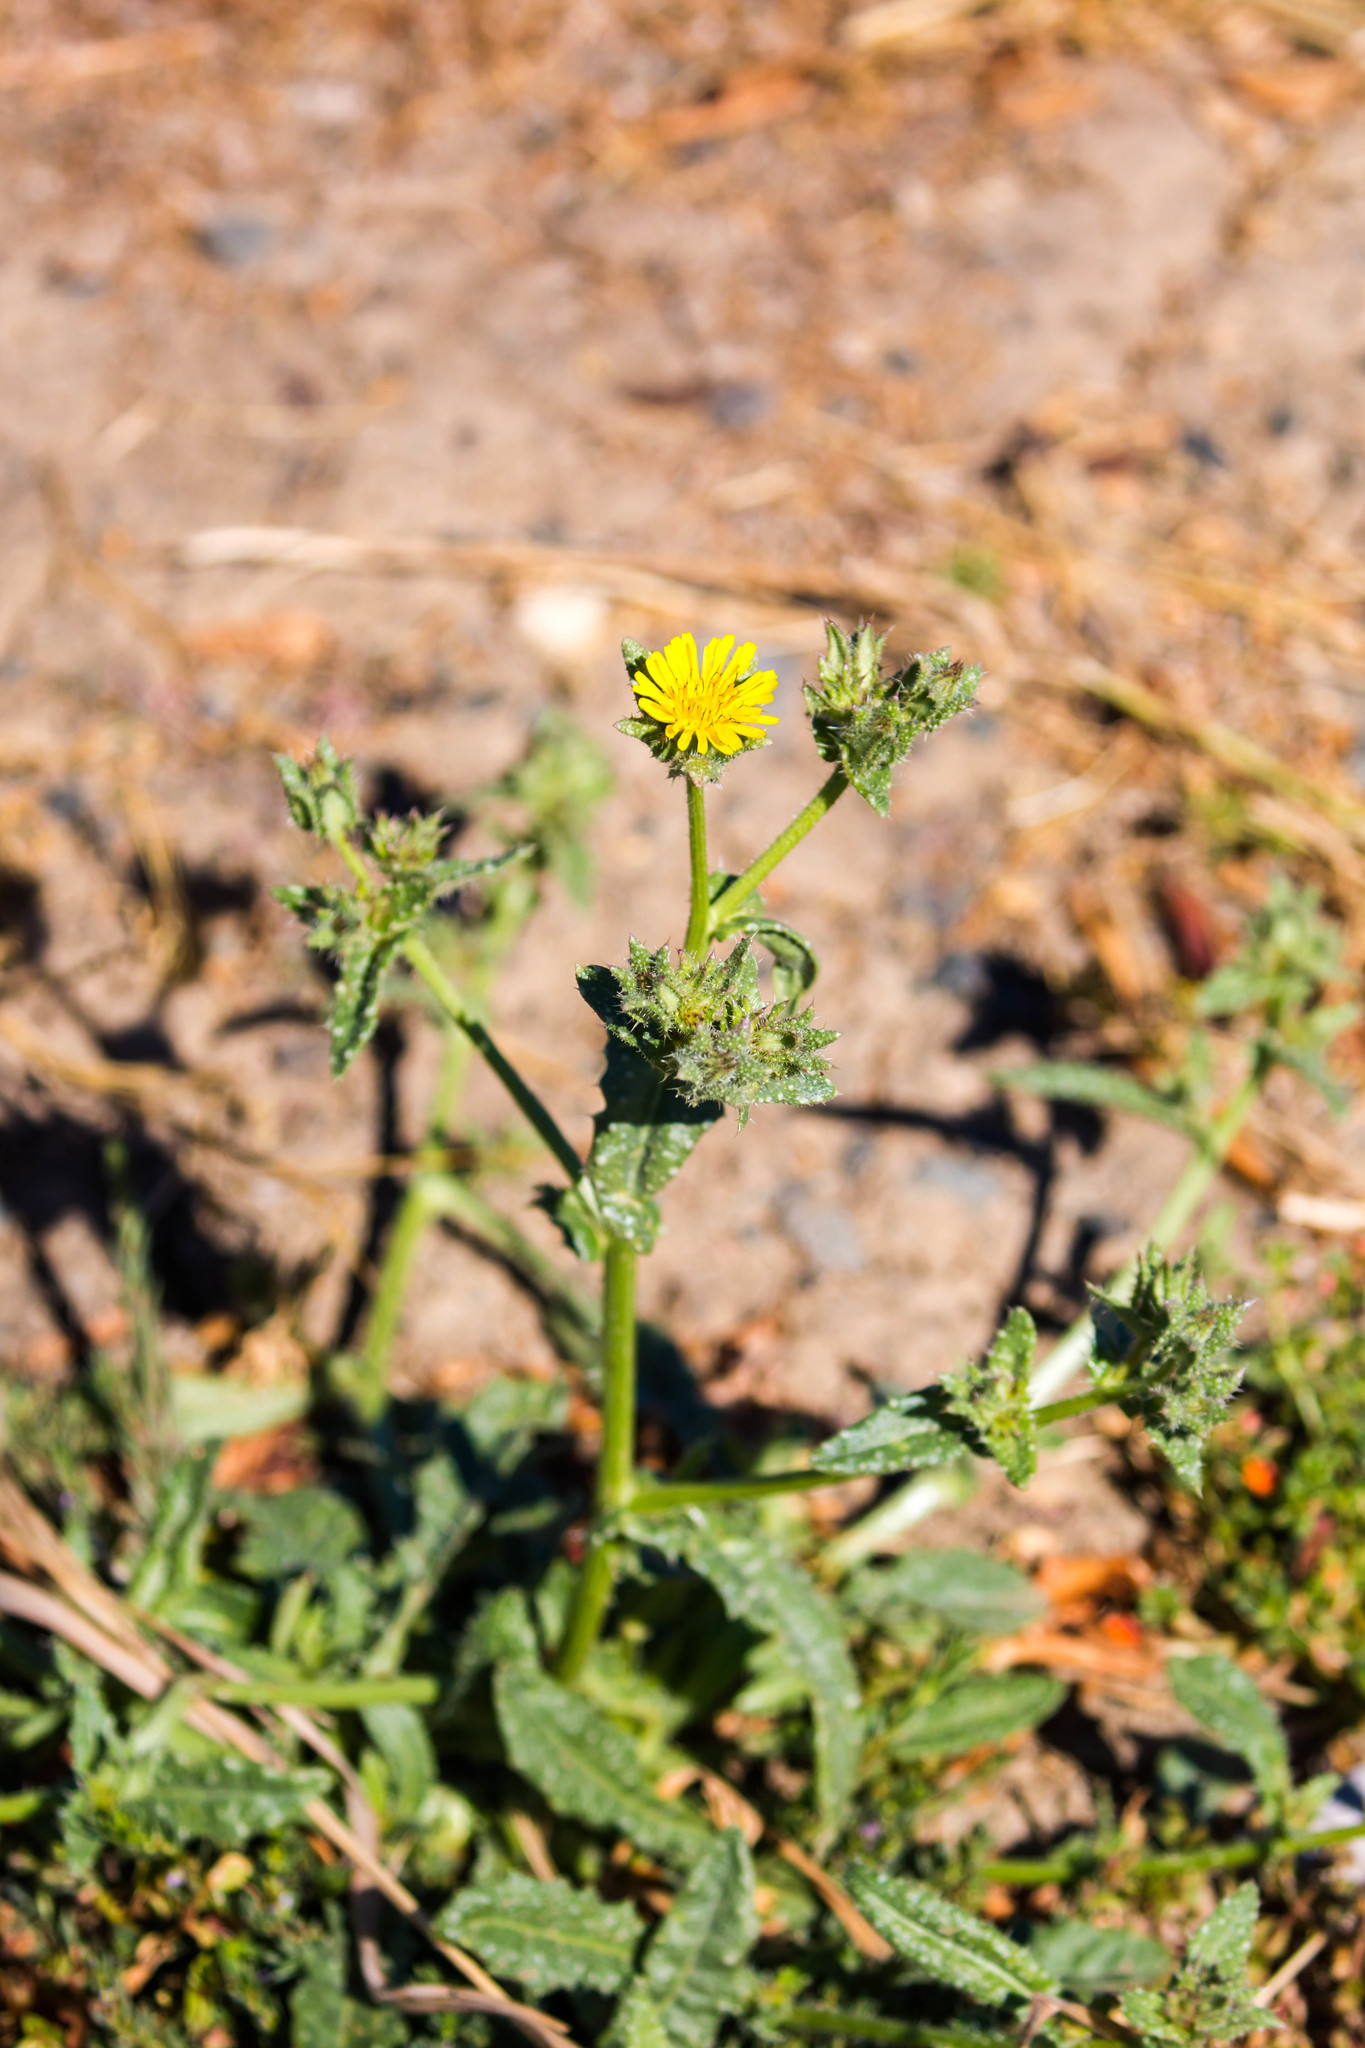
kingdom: Plantae
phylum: Tracheophyta
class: Magnoliopsida
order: Asterales
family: Asteraceae
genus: Helminthotheca
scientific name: Helminthotheca echioides
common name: Ox-tongue
